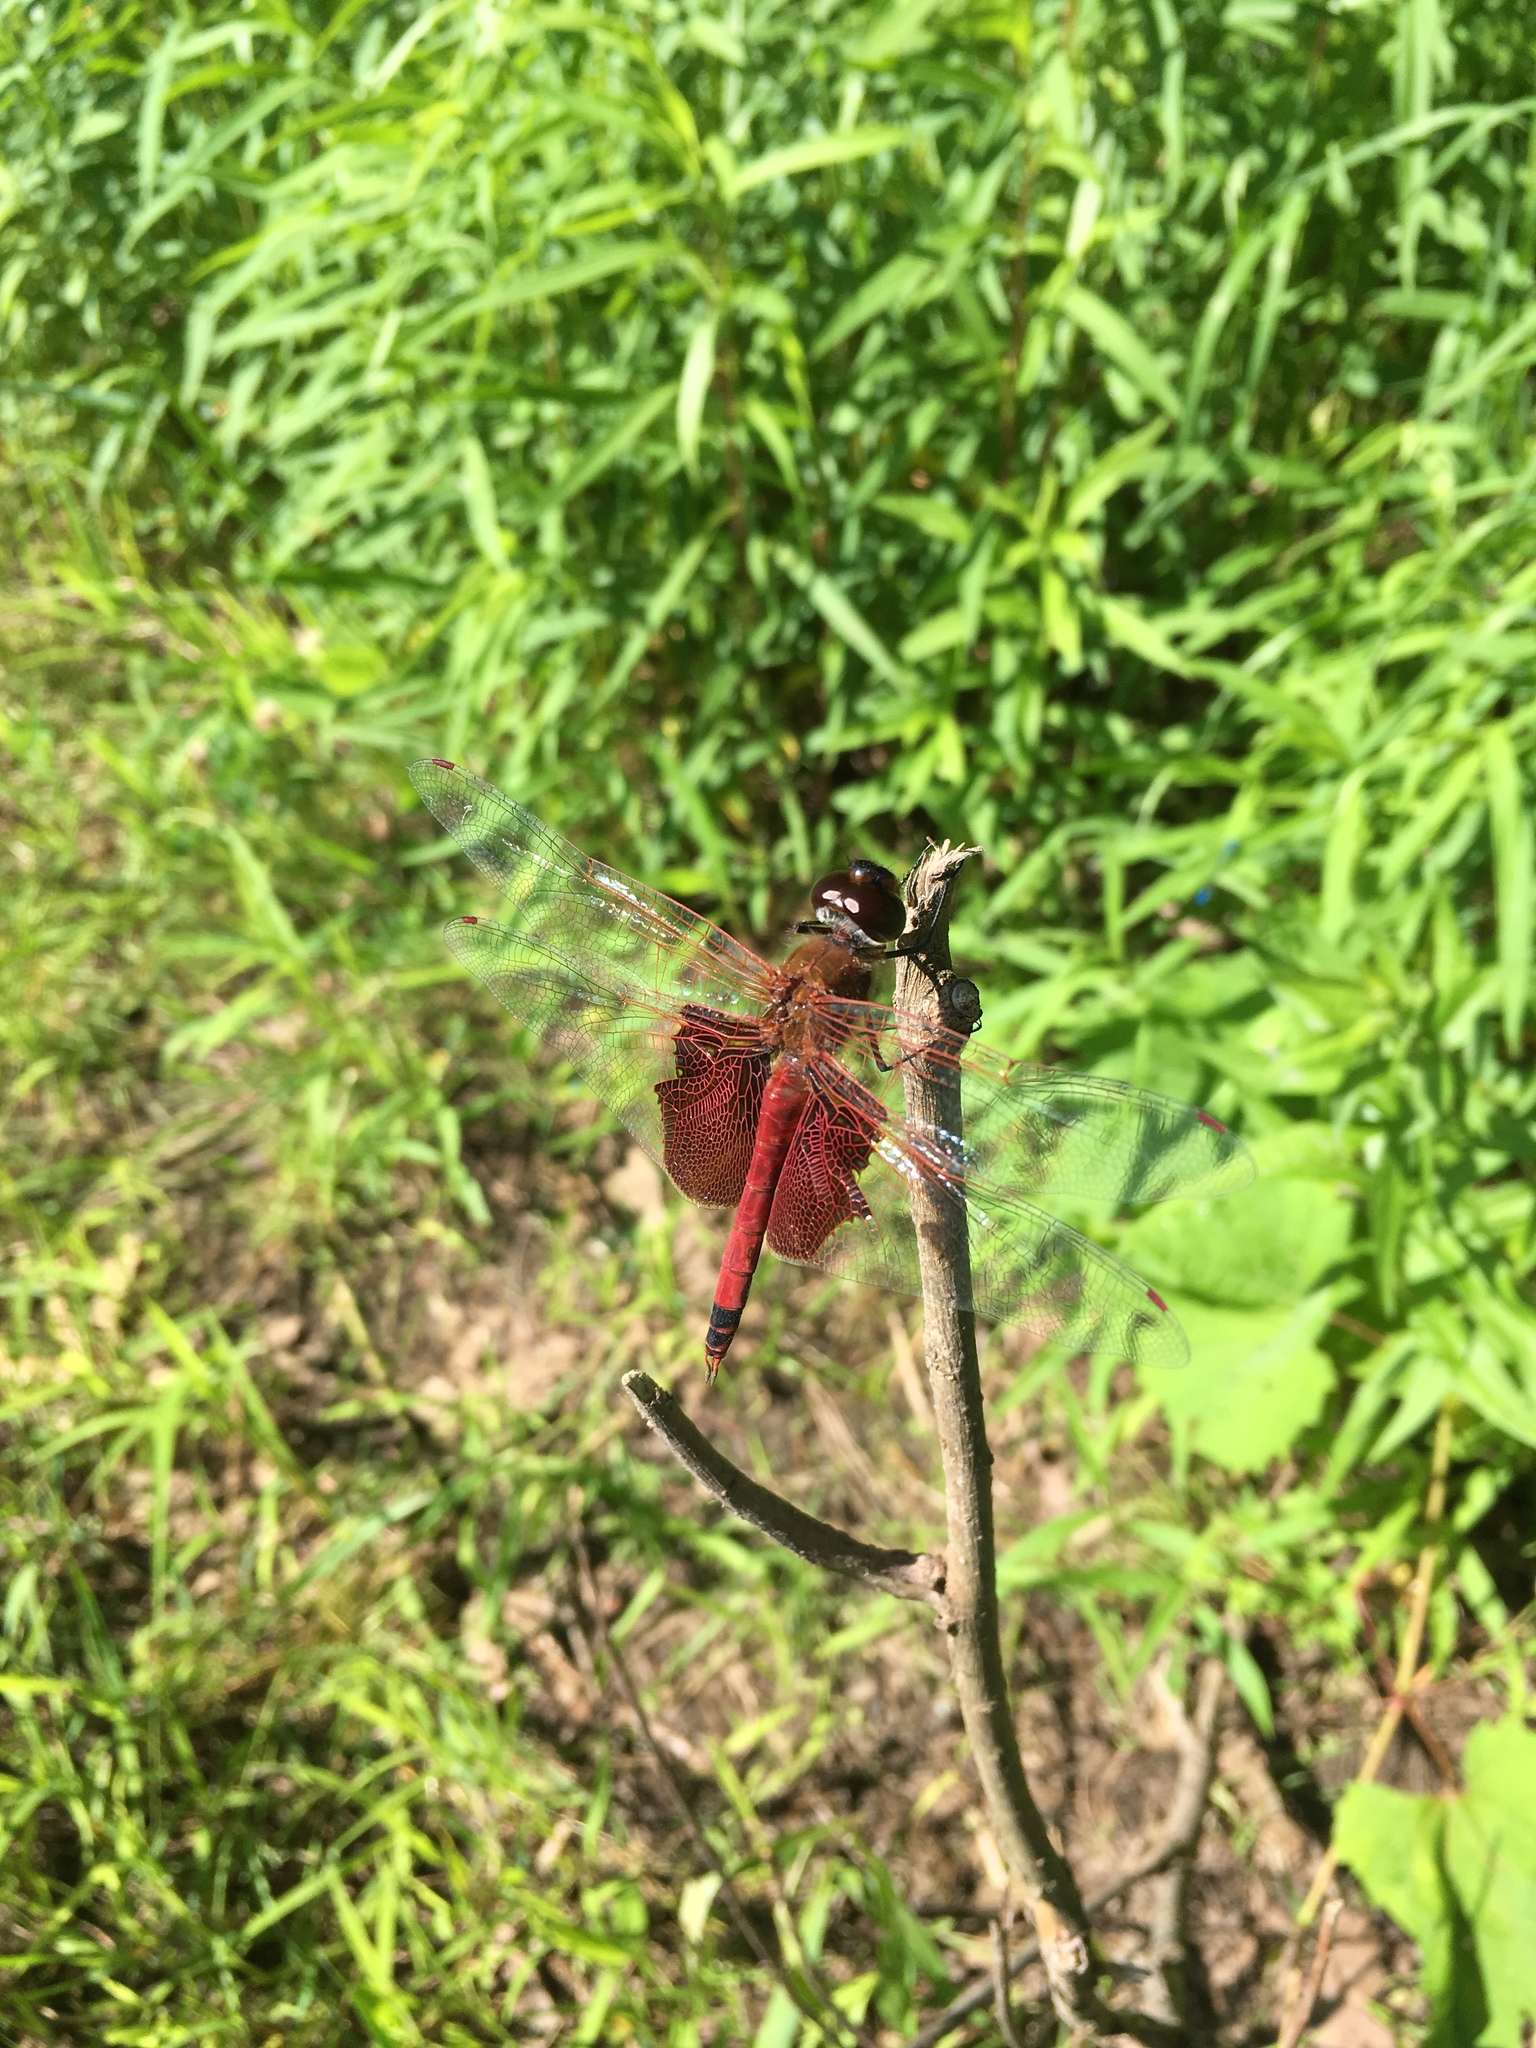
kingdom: Animalia
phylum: Arthropoda
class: Insecta
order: Odonata
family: Libellulidae
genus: Tramea
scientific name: Tramea carolina
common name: Carolina saddlebags
